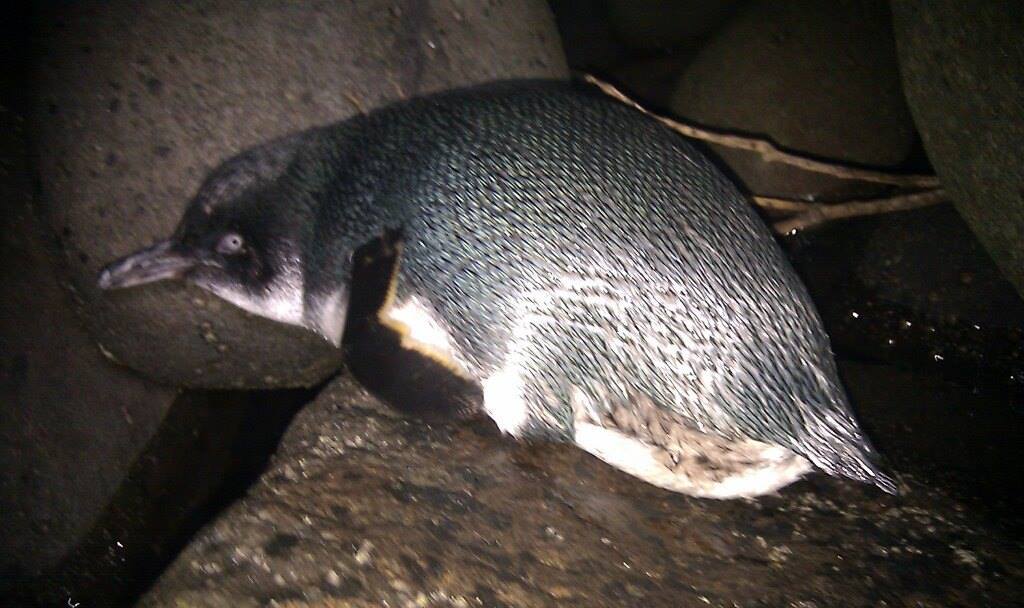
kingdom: Animalia
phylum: Chordata
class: Aves
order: Sphenisciformes
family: Spheniscidae
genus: Eudyptula
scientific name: Eudyptula minor
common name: Little penguin
